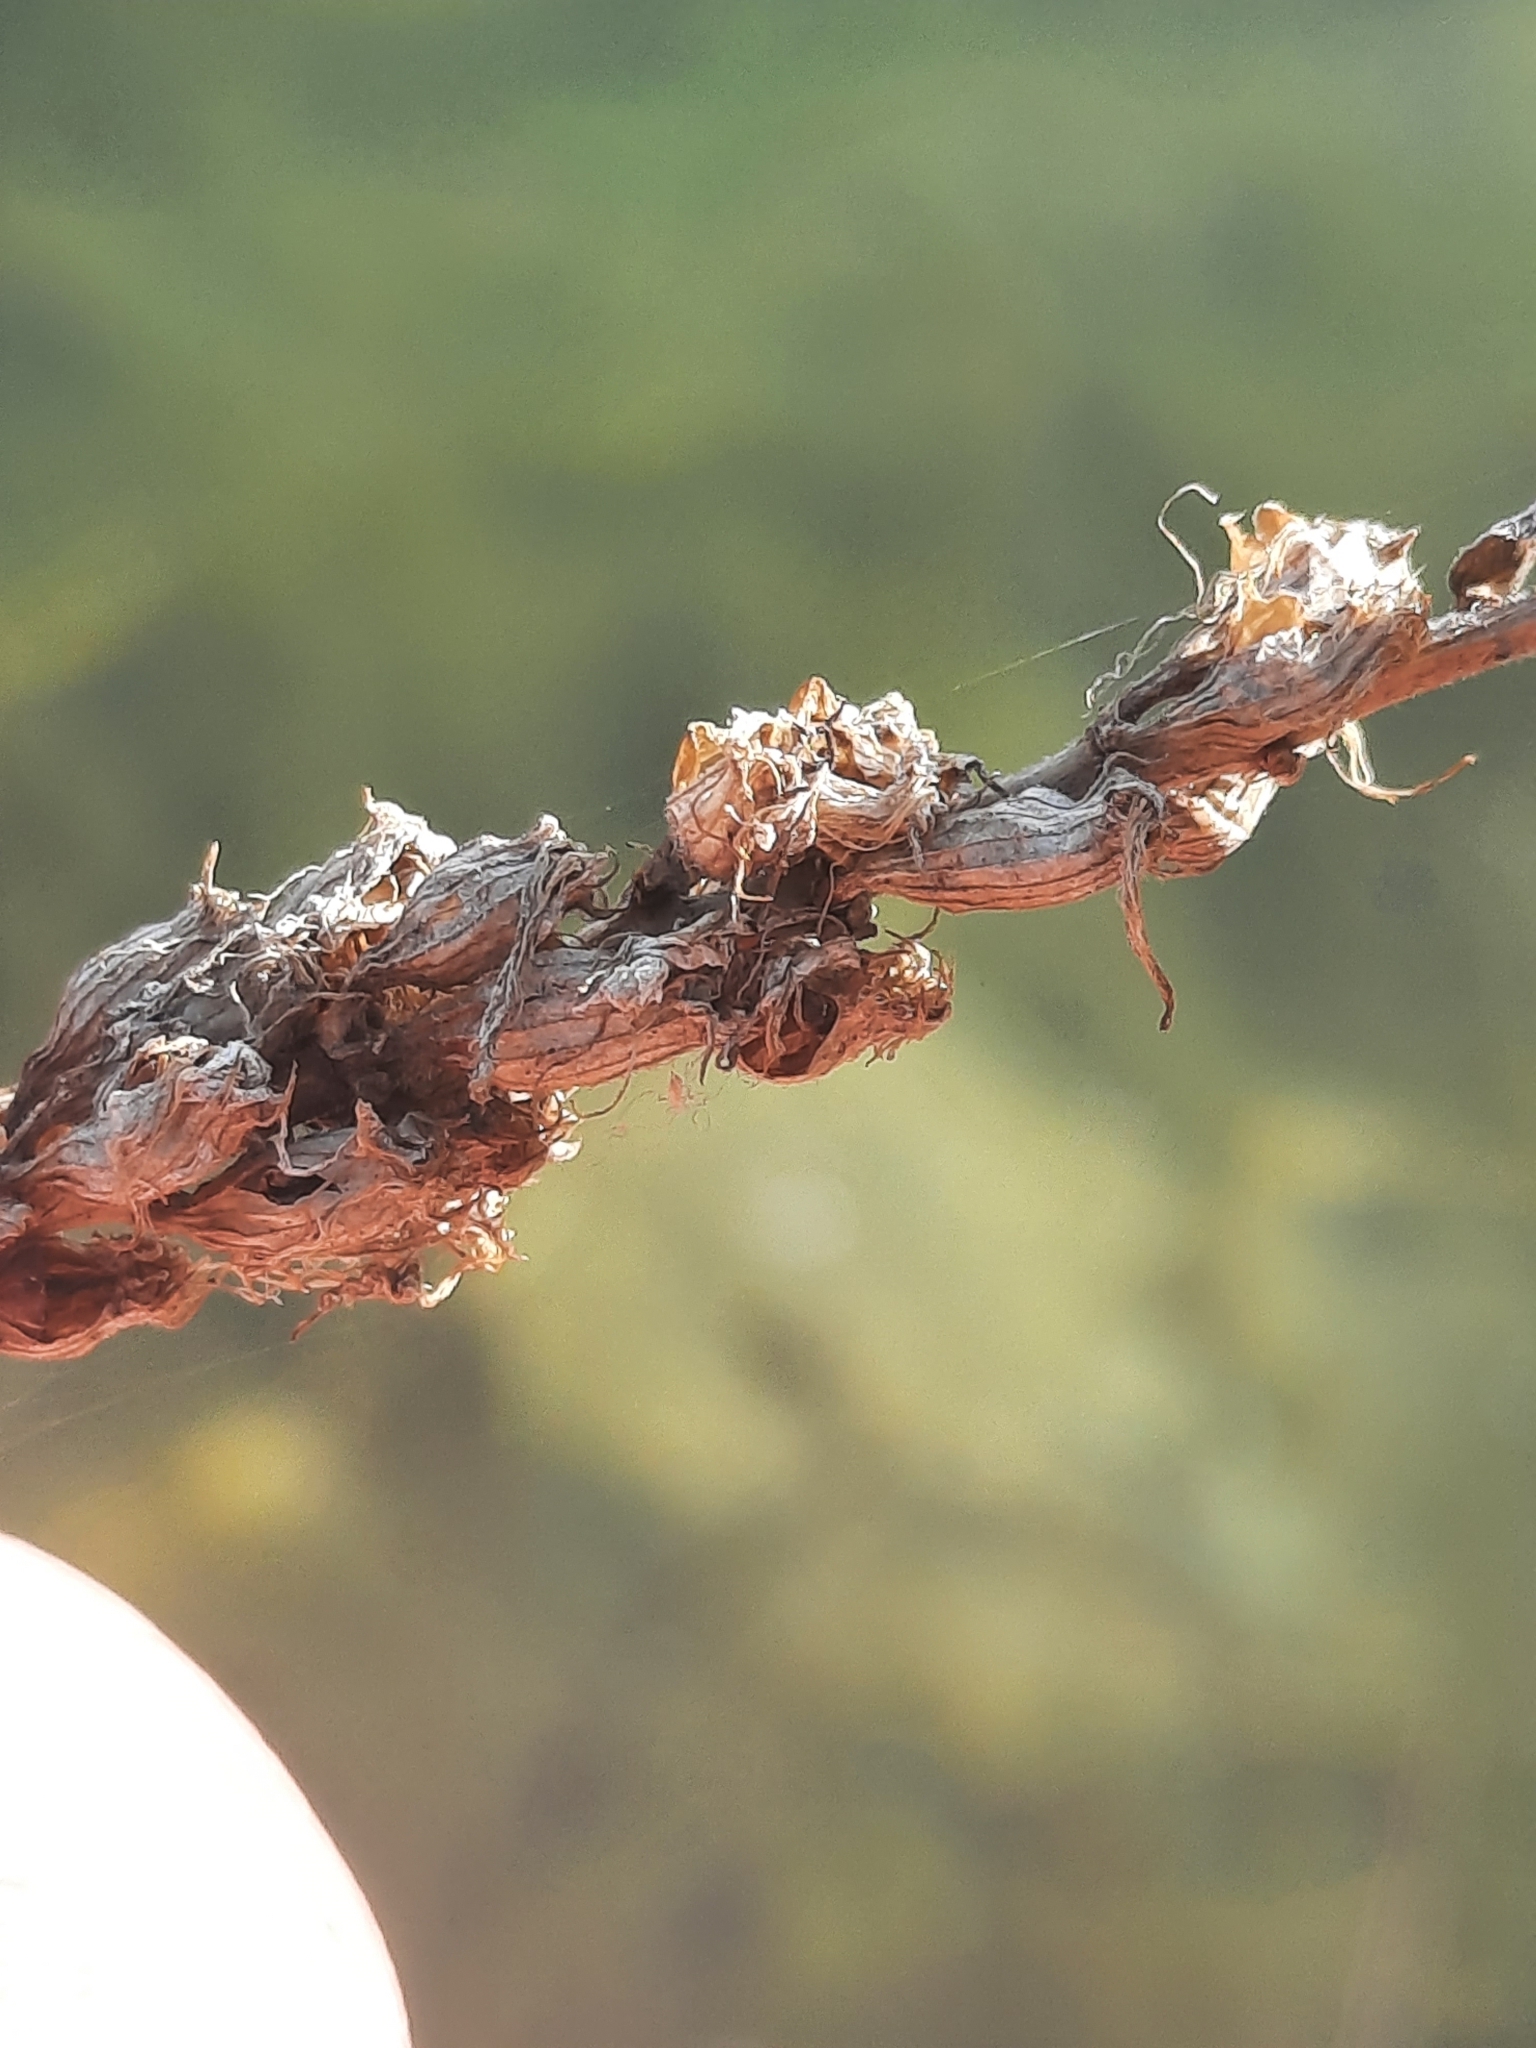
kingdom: Plantae
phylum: Tracheophyta
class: Magnoliopsida
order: Lamiales
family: Verbenaceae
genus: Verbena
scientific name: Verbena hastata
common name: American blue vervain
